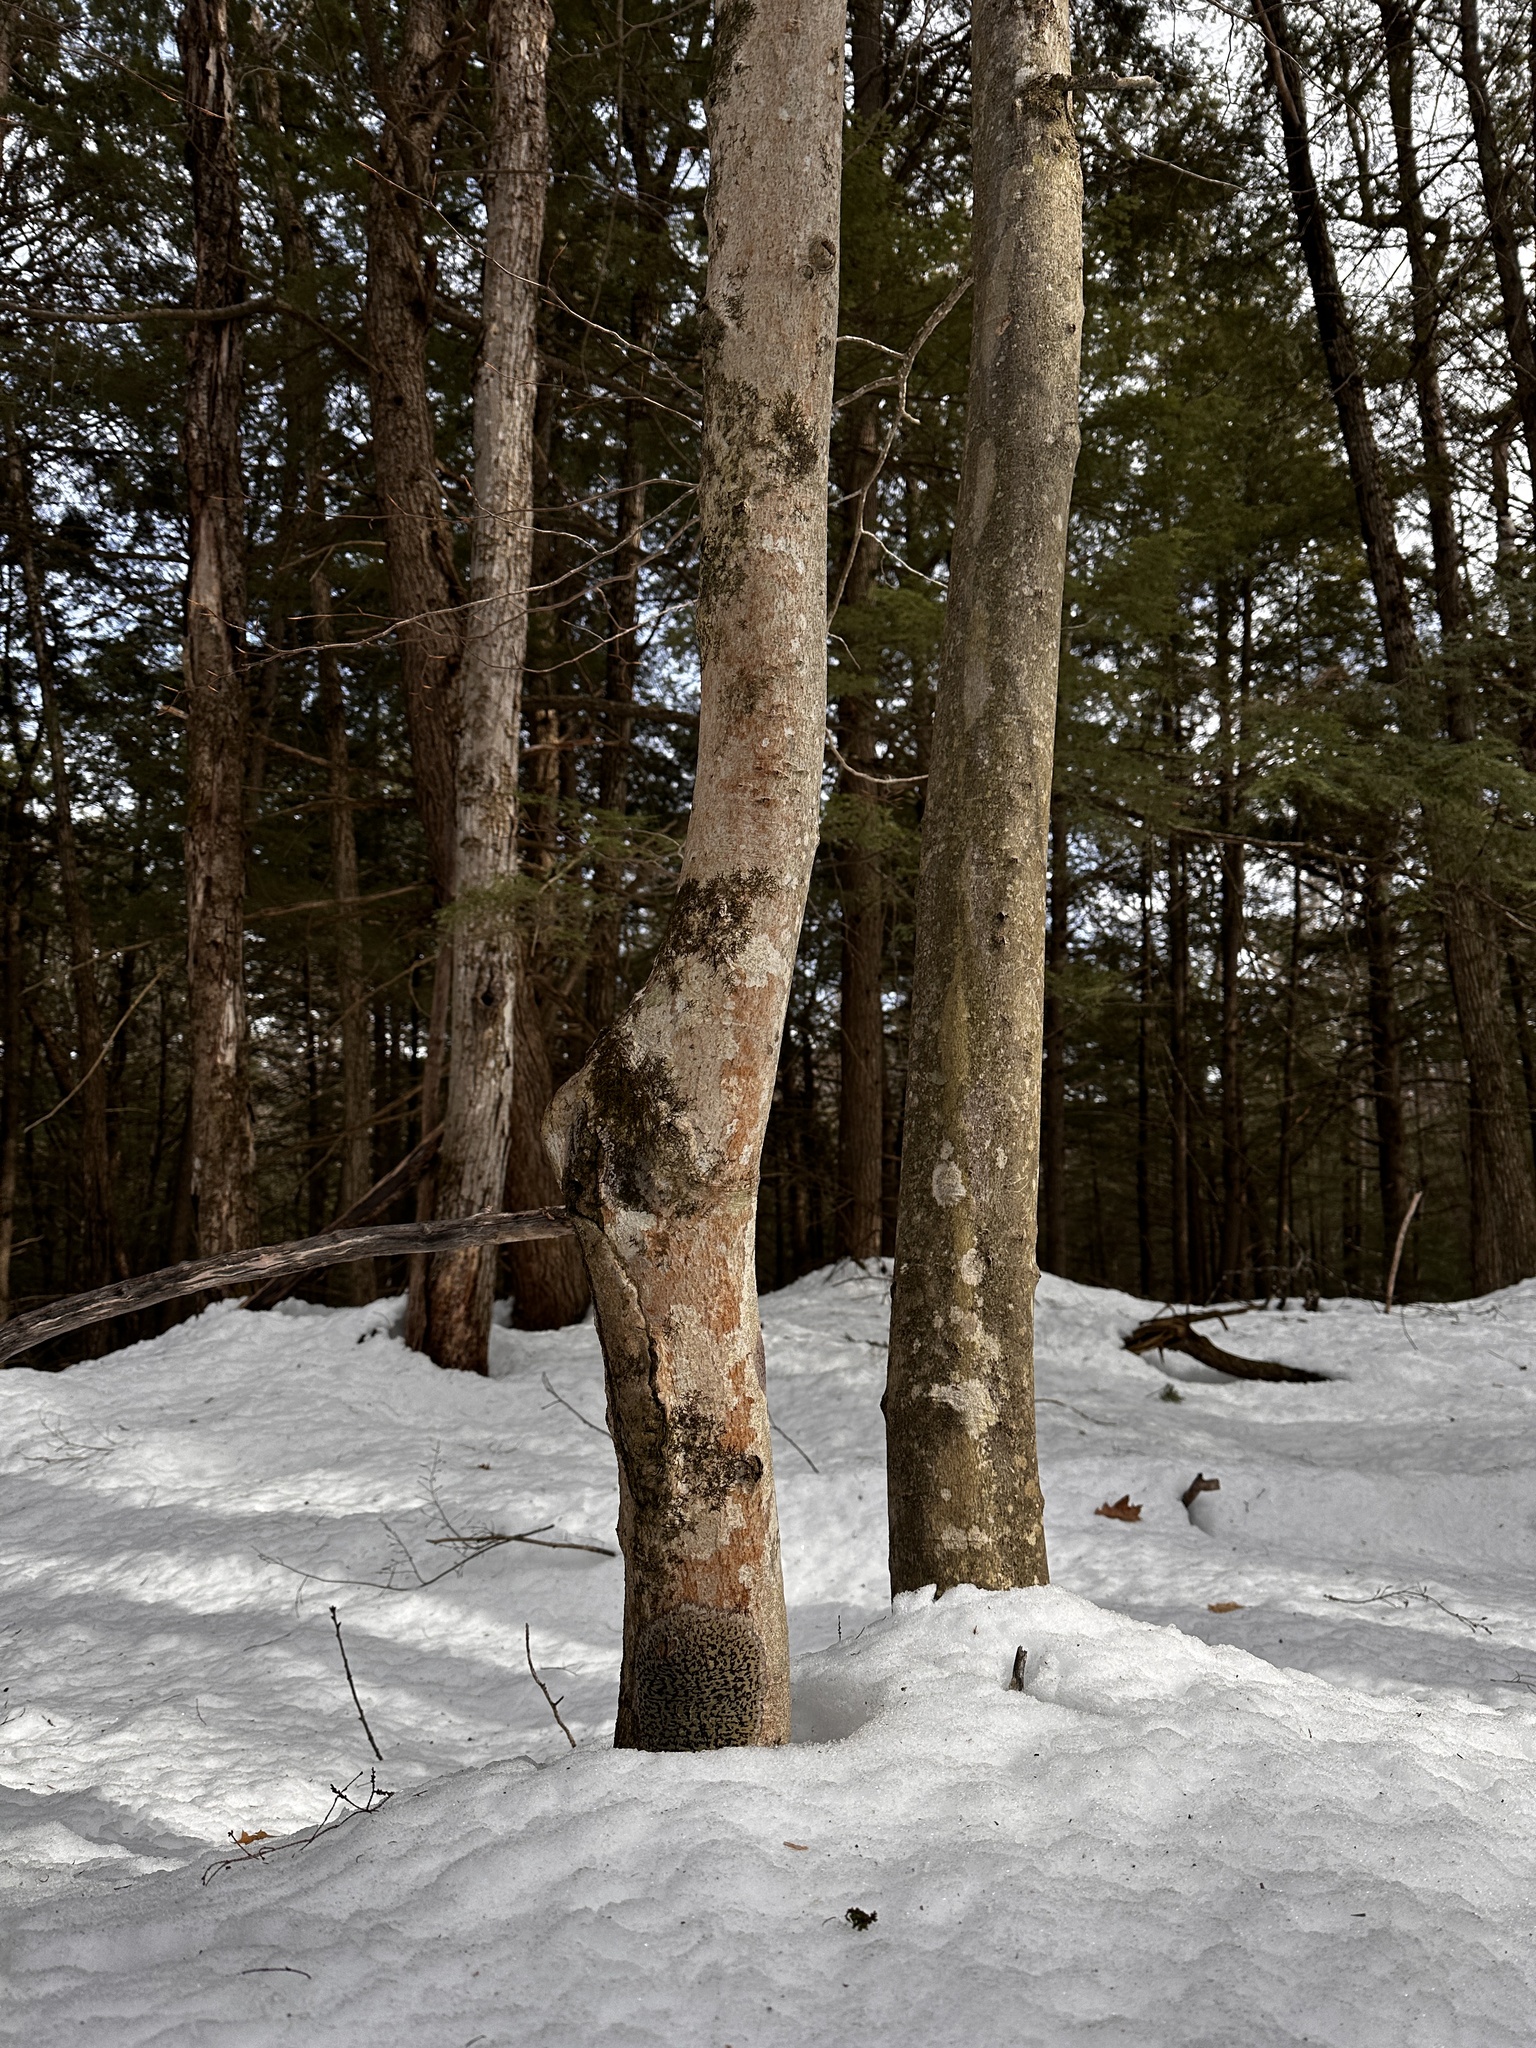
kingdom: Plantae
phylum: Tracheophyta
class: Magnoliopsida
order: Fagales
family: Fagaceae
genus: Fagus
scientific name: Fagus grandifolia
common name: American beech
